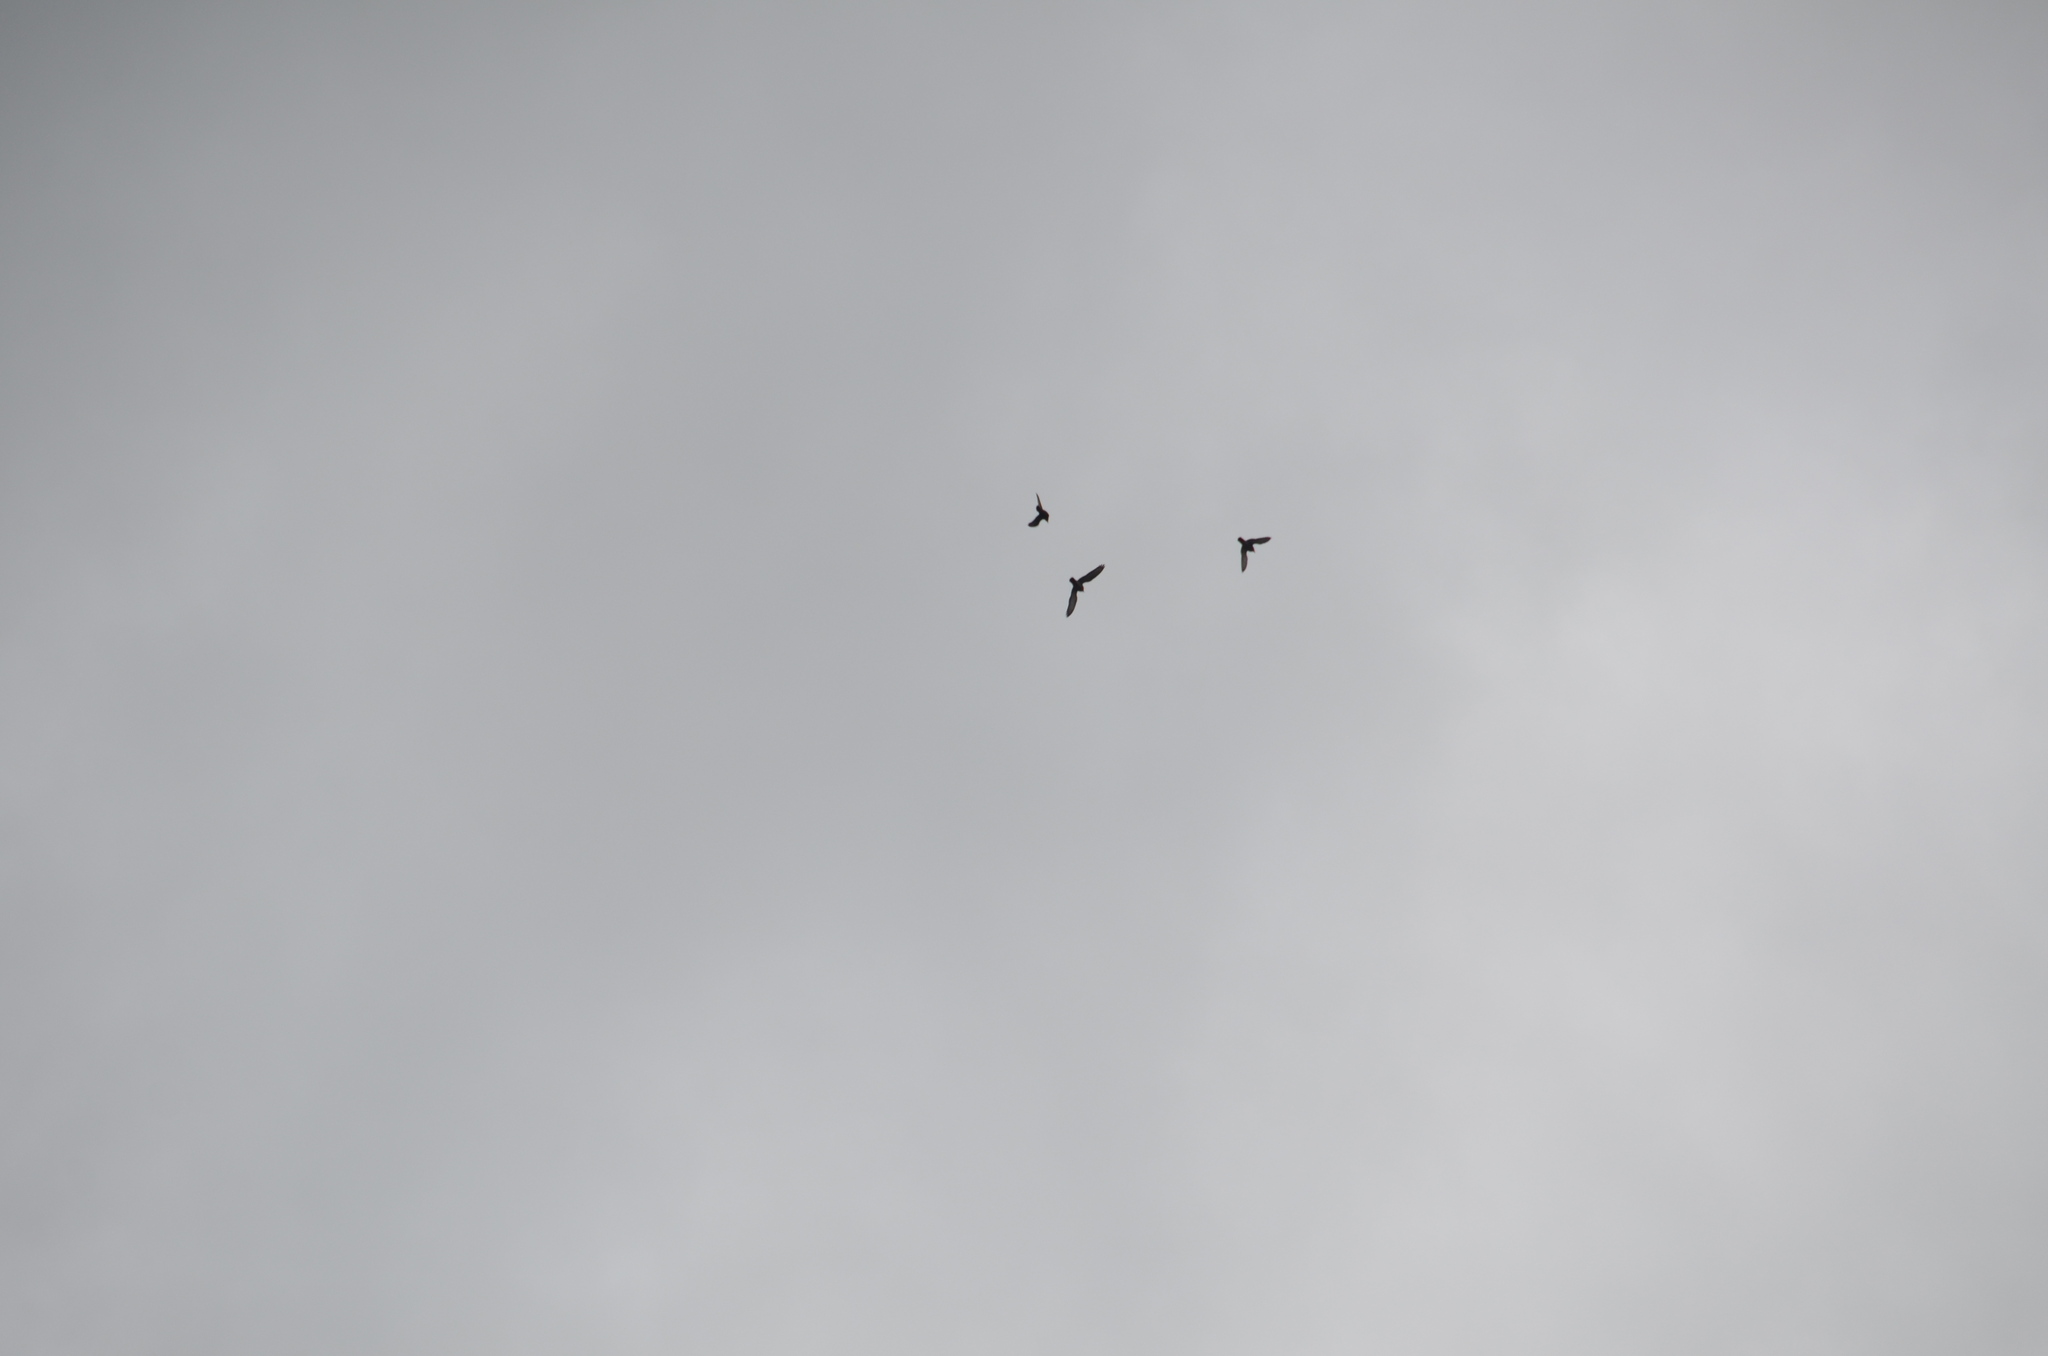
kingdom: Animalia
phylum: Chordata
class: Aves
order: Columbiformes
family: Columbidae
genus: Columba
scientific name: Columba livia
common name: Rock pigeon
